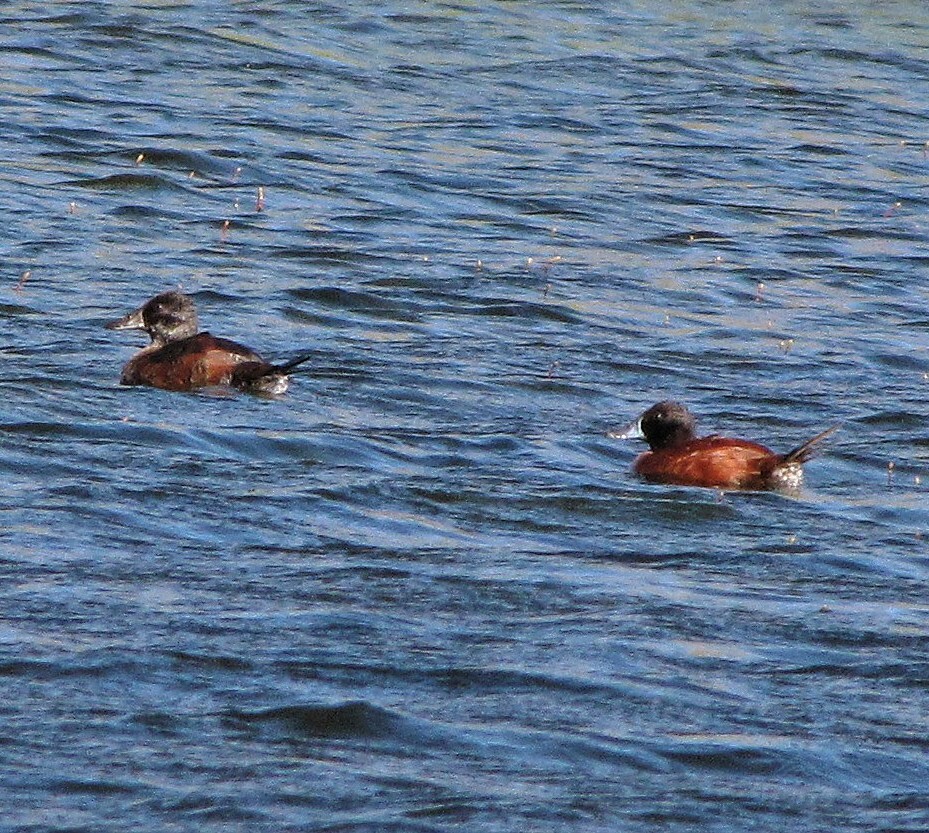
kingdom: Animalia
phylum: Chordata
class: Aves
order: Anseriformes
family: Anatidae
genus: Oxyura
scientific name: Oxyura vittata
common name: Lake duck
